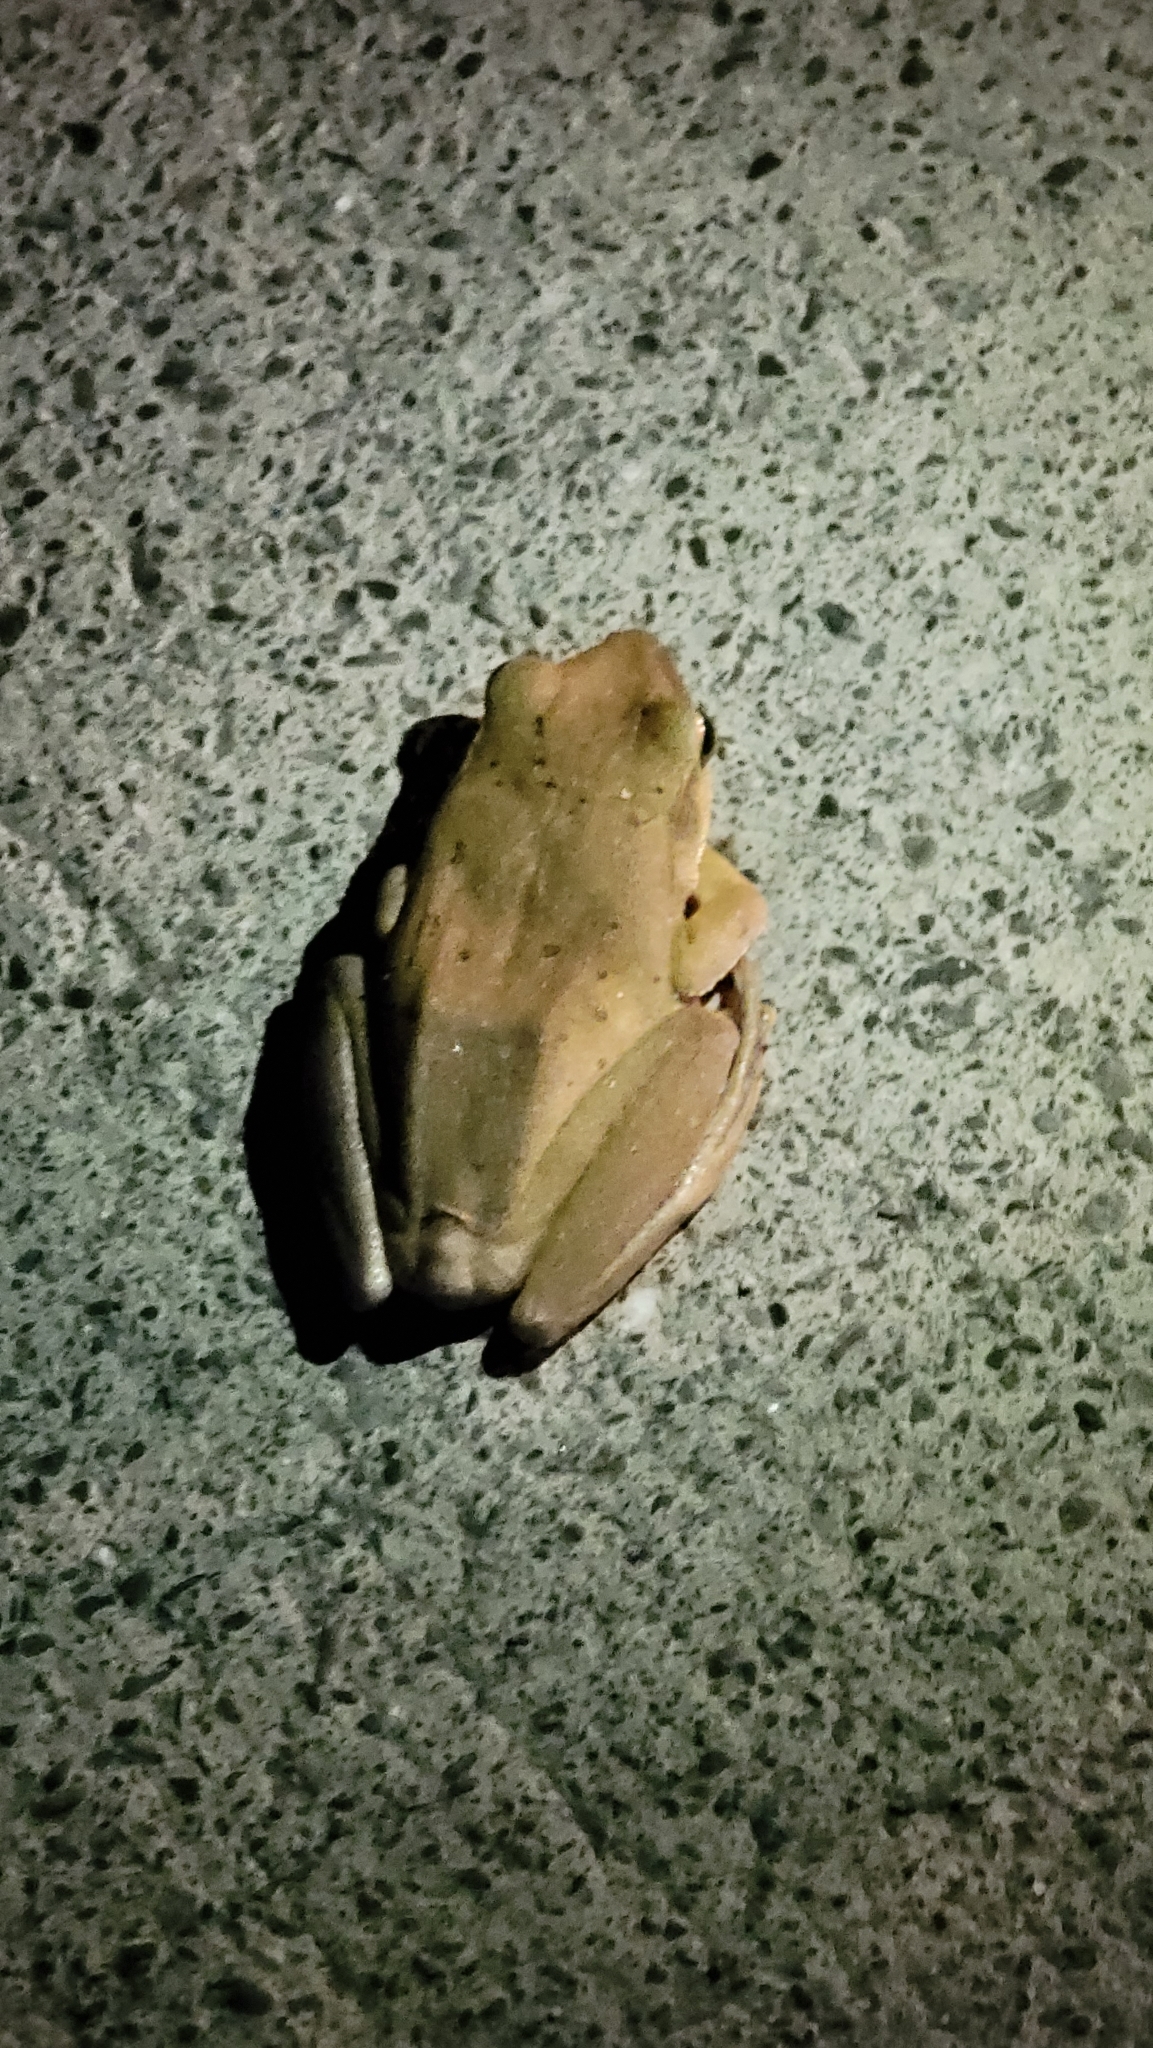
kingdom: Animalia
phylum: Chordata
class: Amphibia
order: Anura
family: Rhacophoridae
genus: Polypedates
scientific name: Polypedates megacephalus
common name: Hong kong whipping frog
